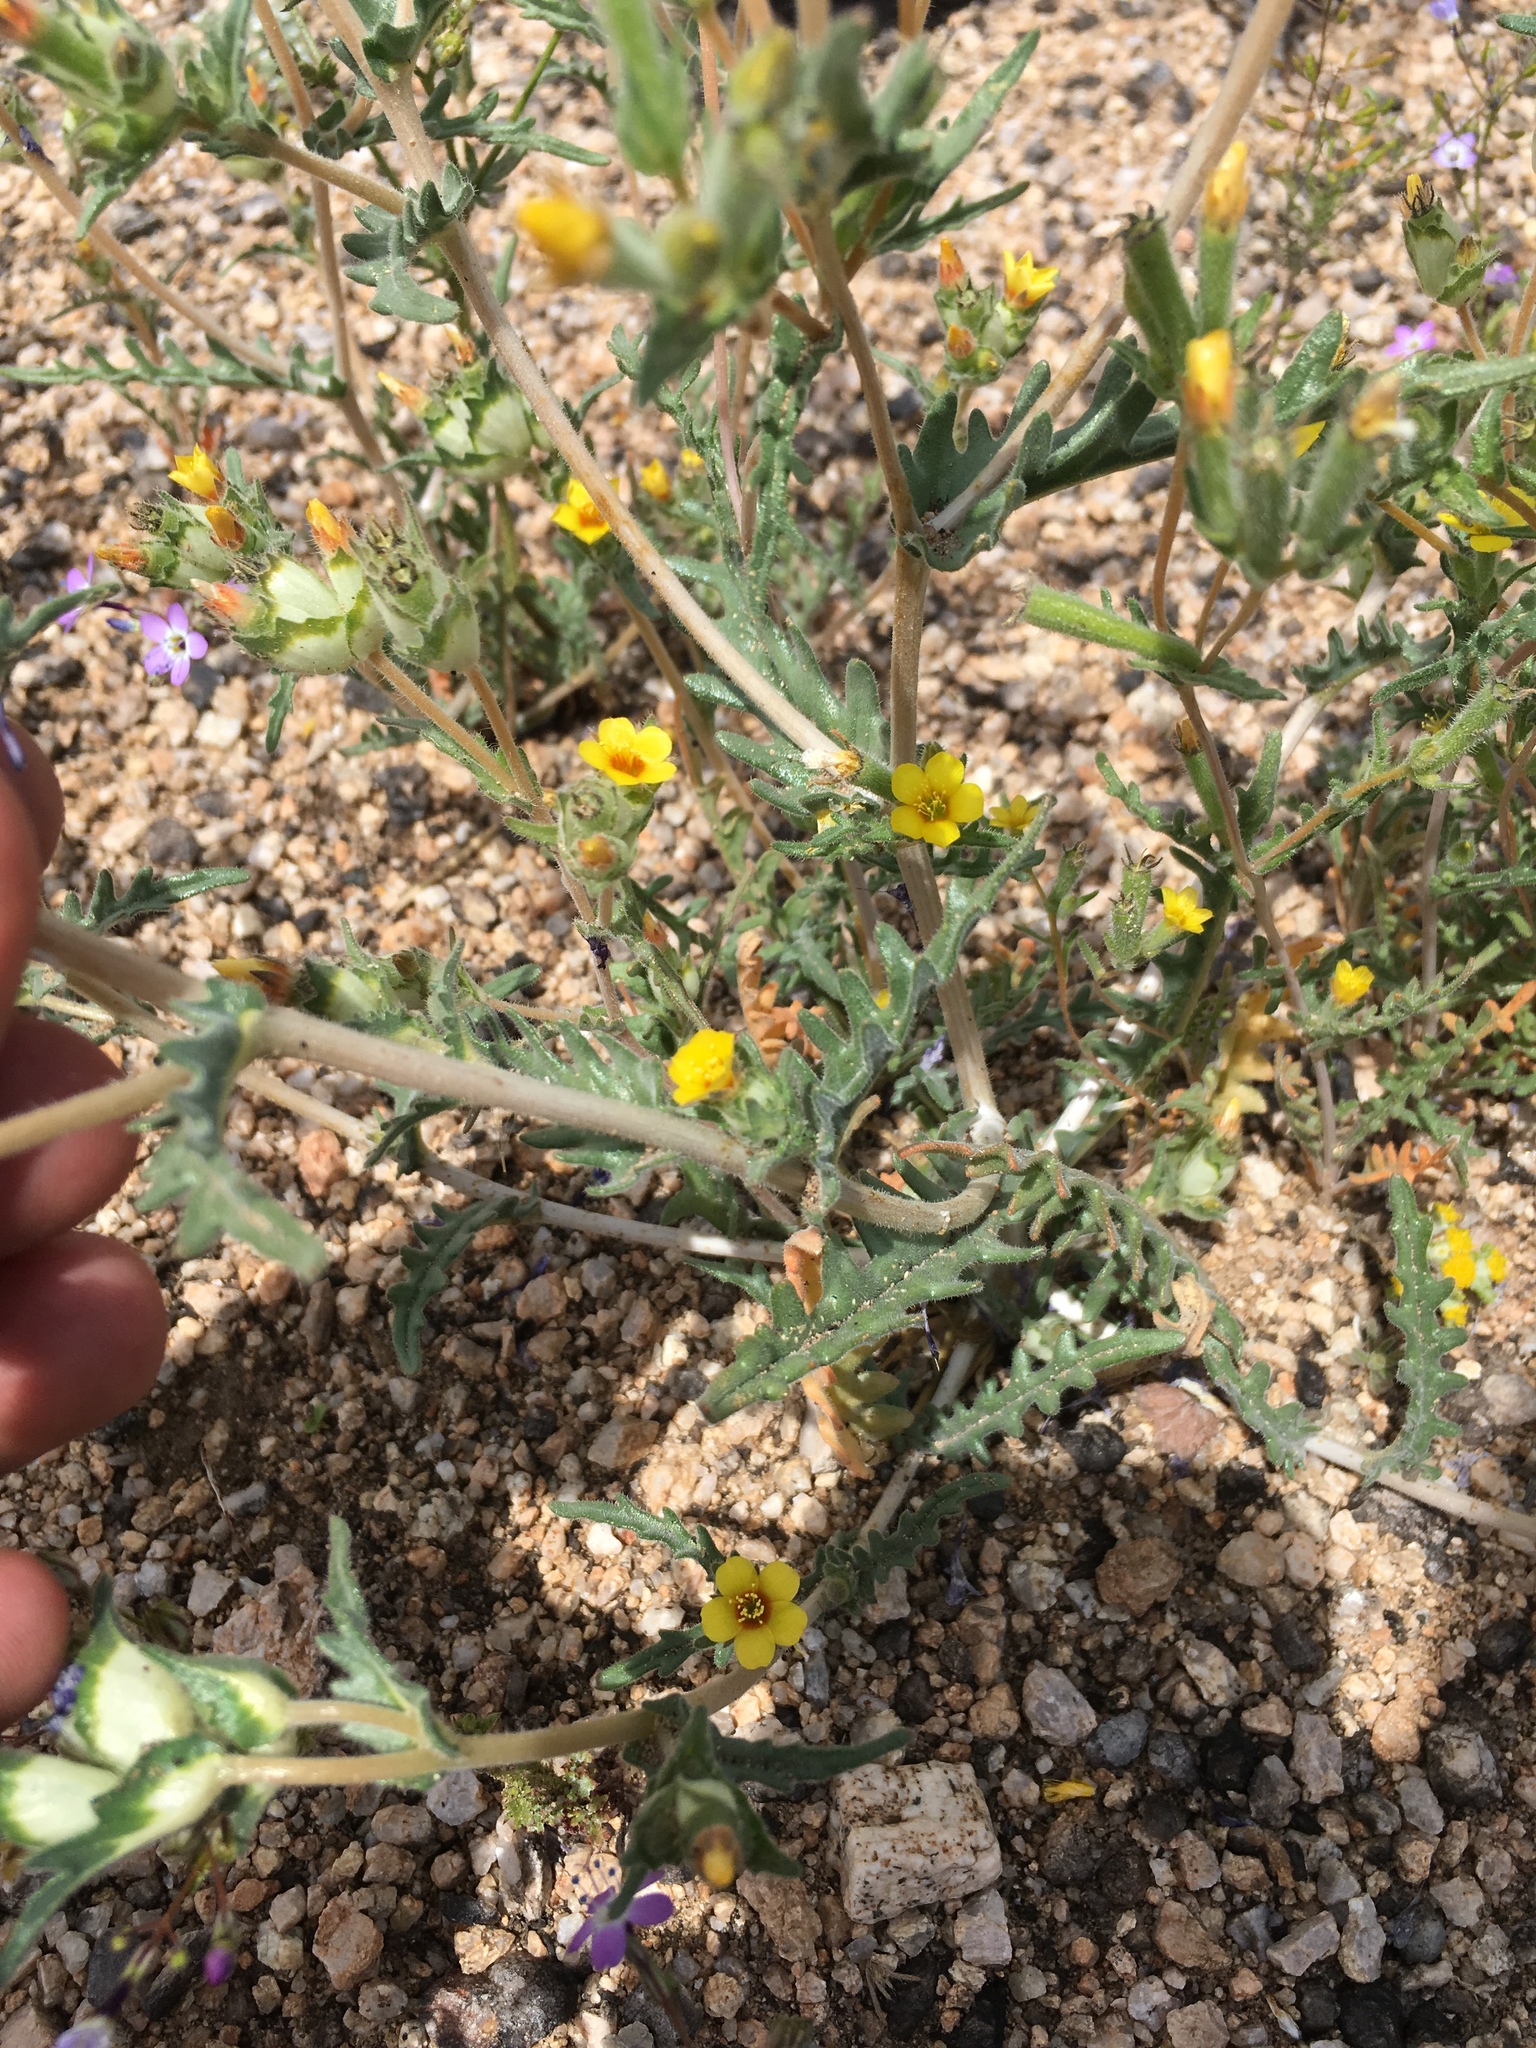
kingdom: Plantae
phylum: Tracheophyta
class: Magnoliopsida
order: Cornales
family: Loasaceae
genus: Mentzelia
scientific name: Mentzelia congesta
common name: Ventana blazingstar
